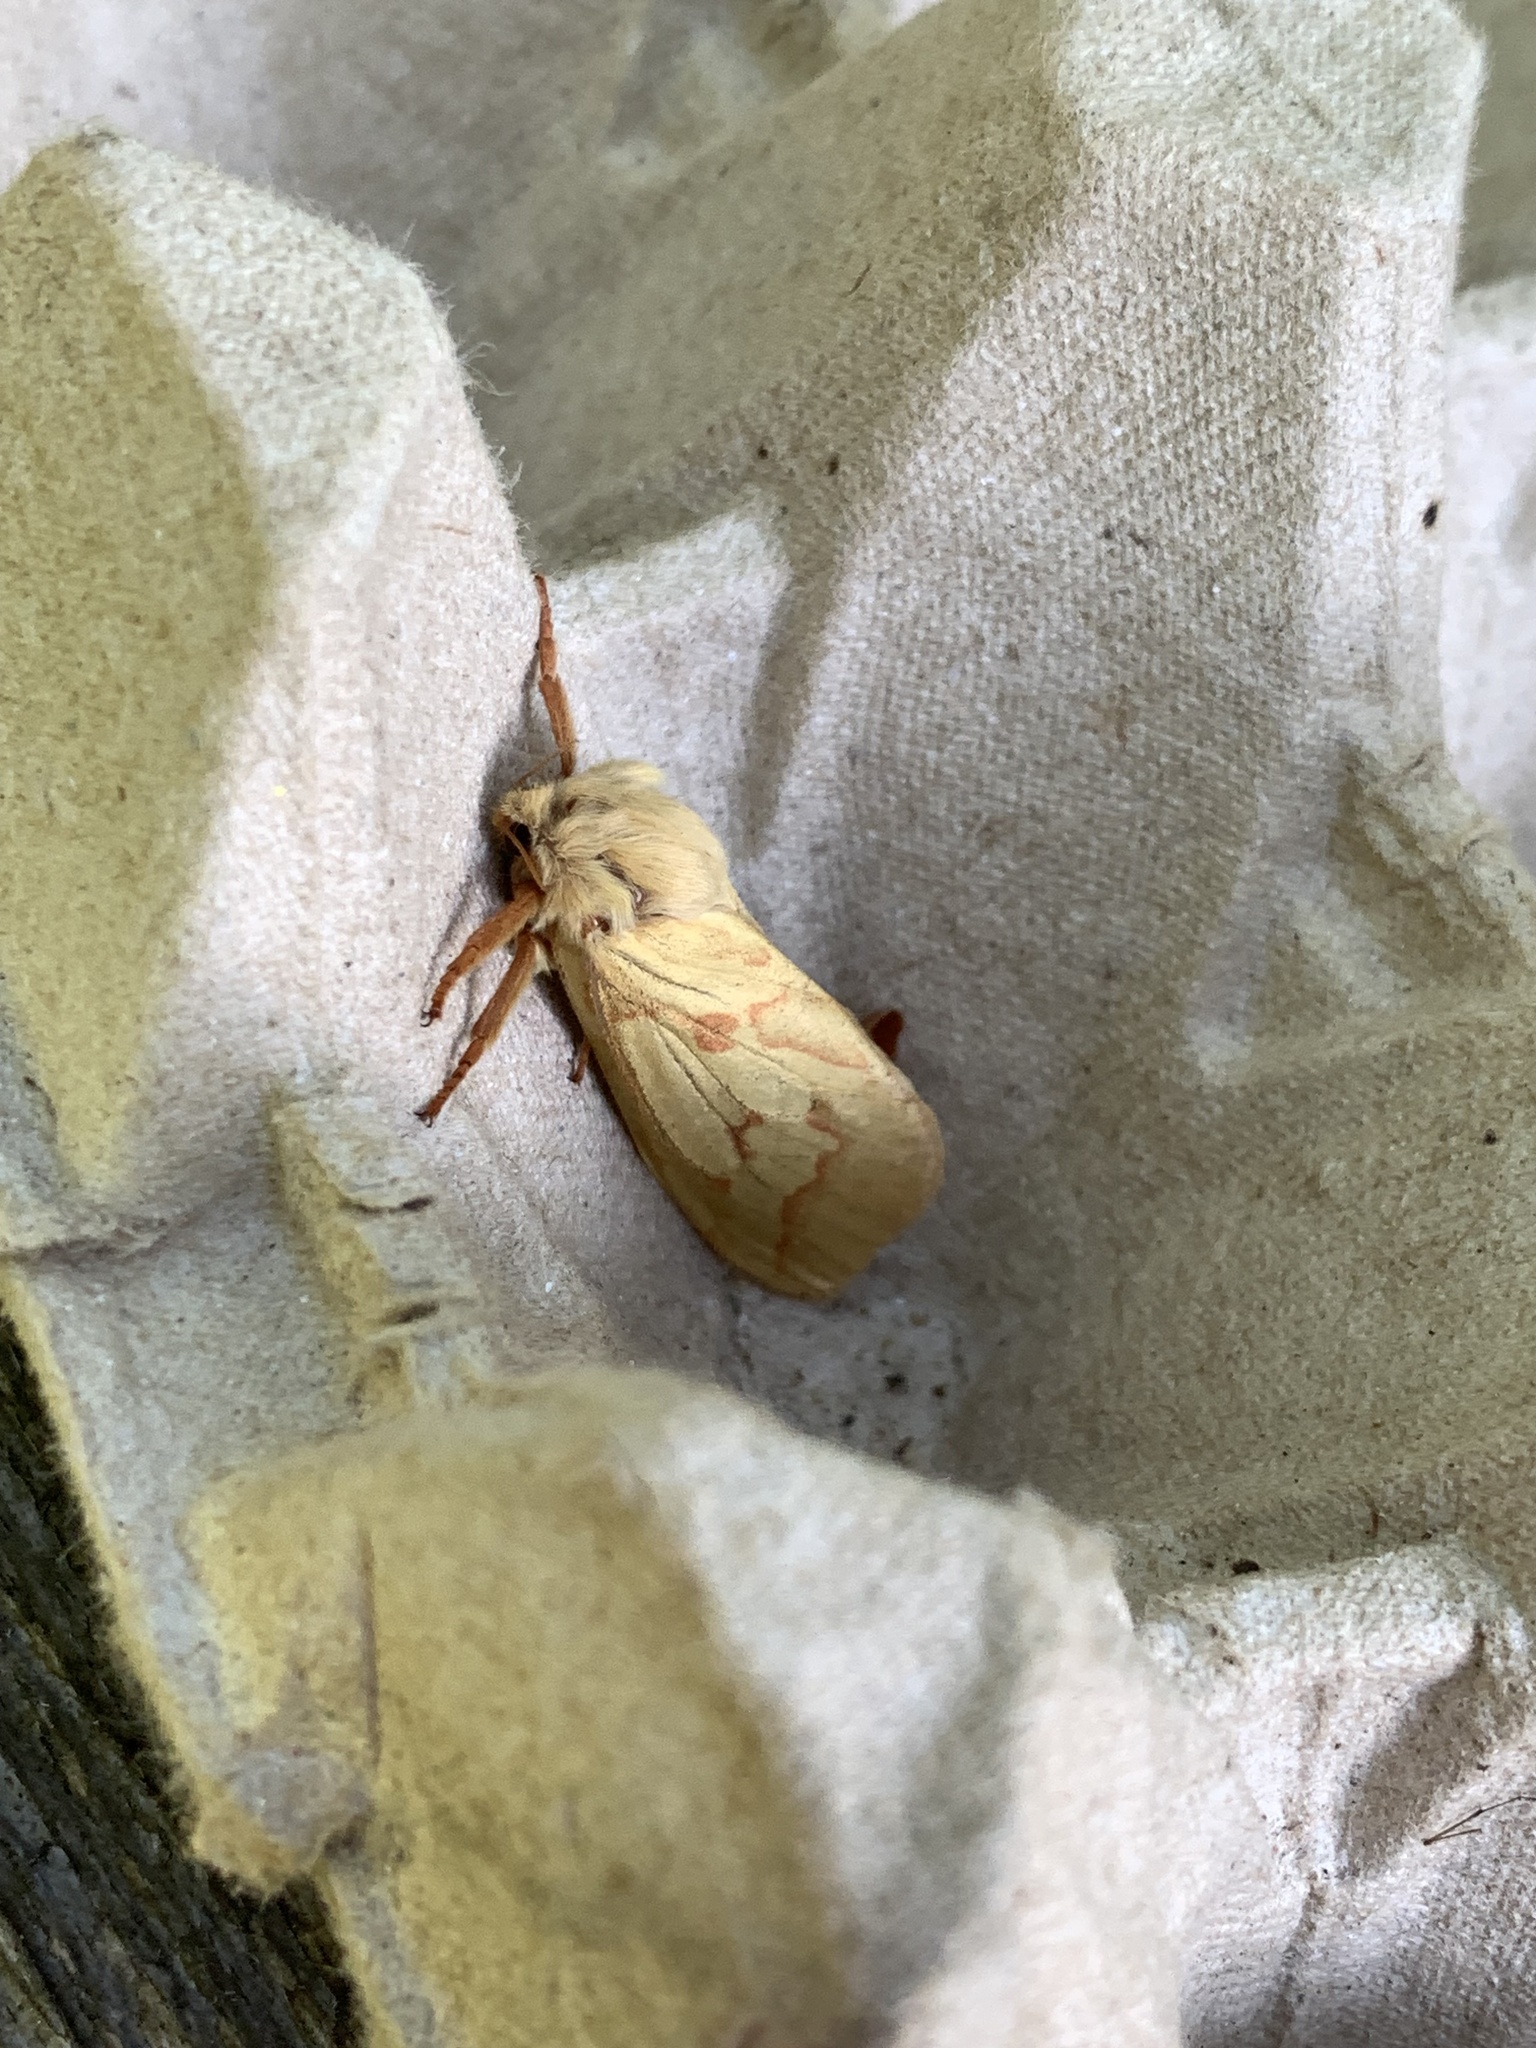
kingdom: Animalia
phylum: Arthropoda
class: Insecta
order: Lepidoptera
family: Hepialidae
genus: Hepialus
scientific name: Hepialus humuli
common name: Ghost moth
